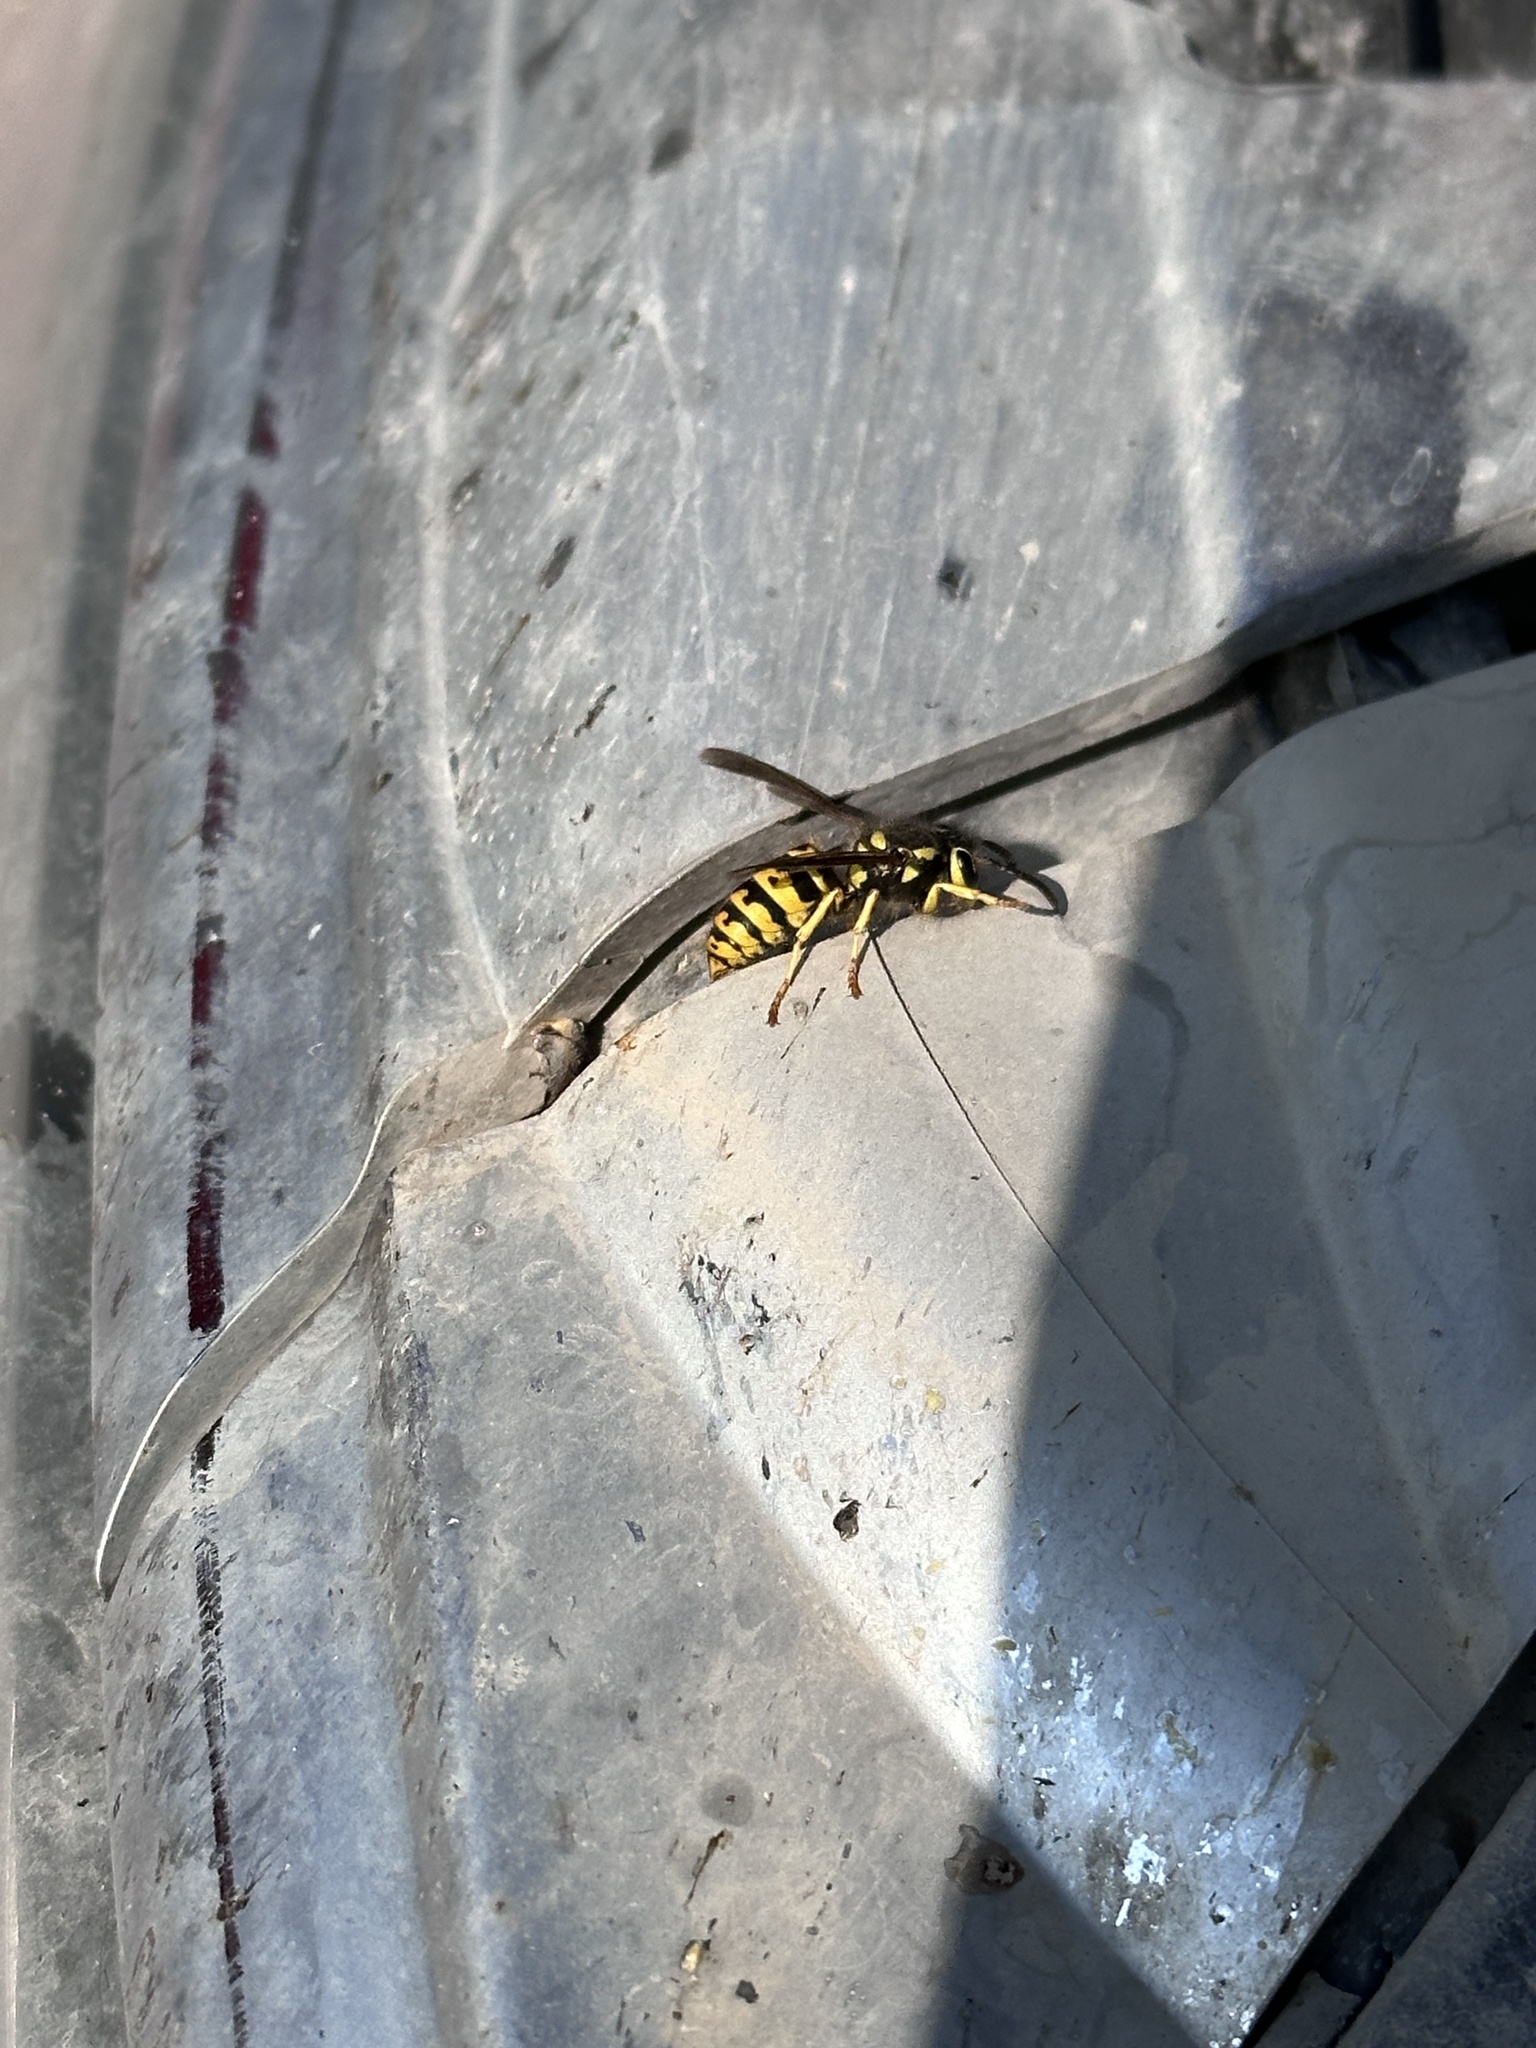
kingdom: Animalia
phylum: Arthropoda
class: Insecta
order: Hymenoptera
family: Vespidae
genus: Vespula
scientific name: Vespula pensylvanica
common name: Western yellowjacket
